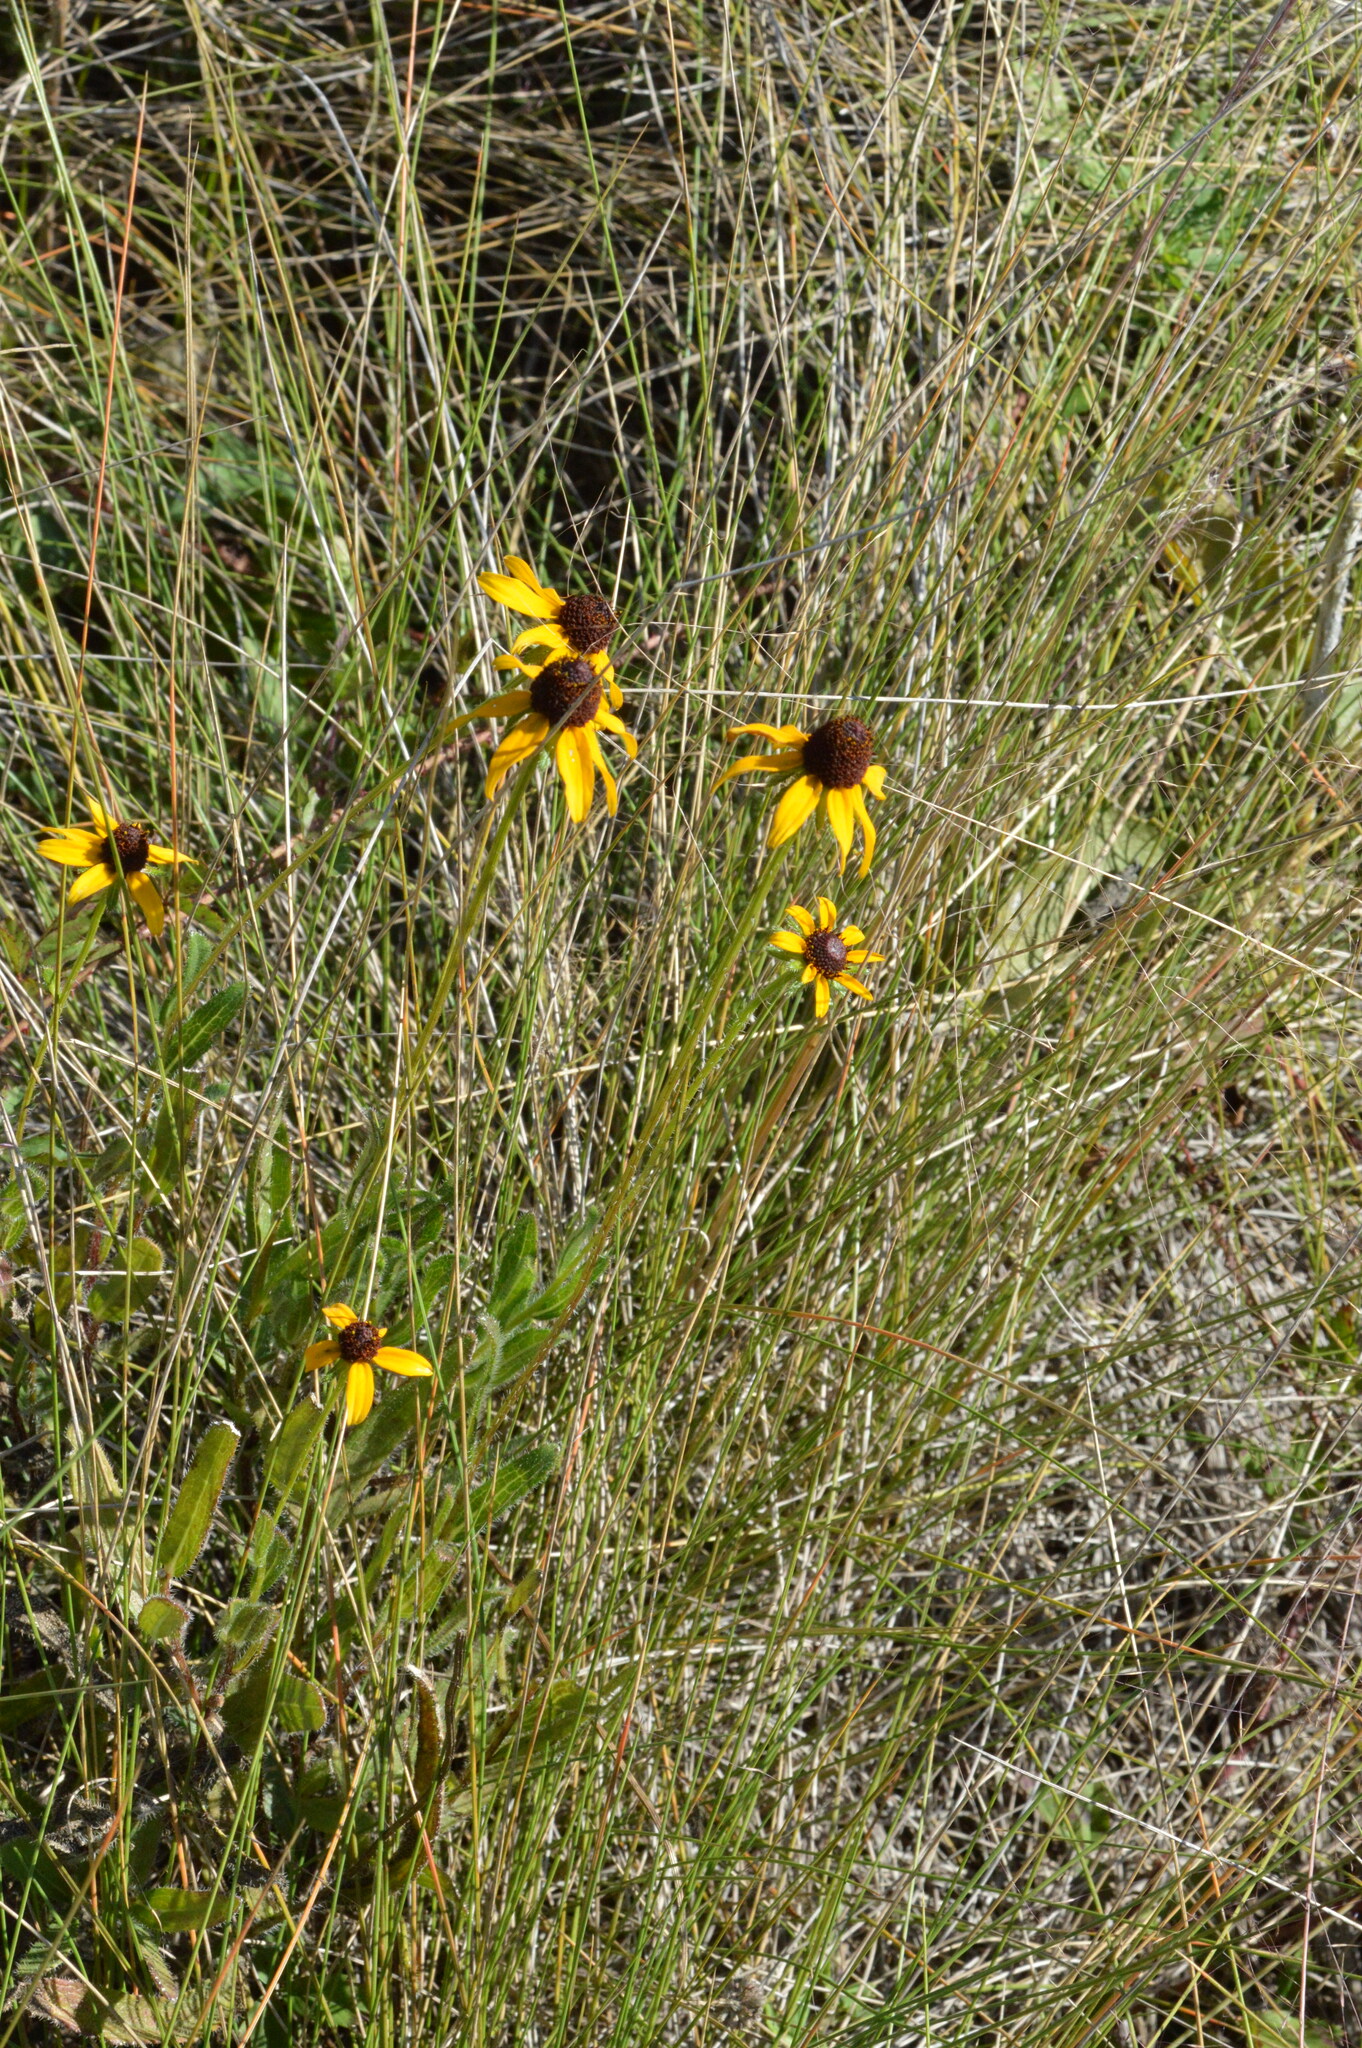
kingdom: Plantae
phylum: Tracheophyta
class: Magnoliopsida
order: Asterales
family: Asteraceae
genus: Rudbeckia
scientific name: Rudbeckia hirta
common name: Black-eyed-susan
